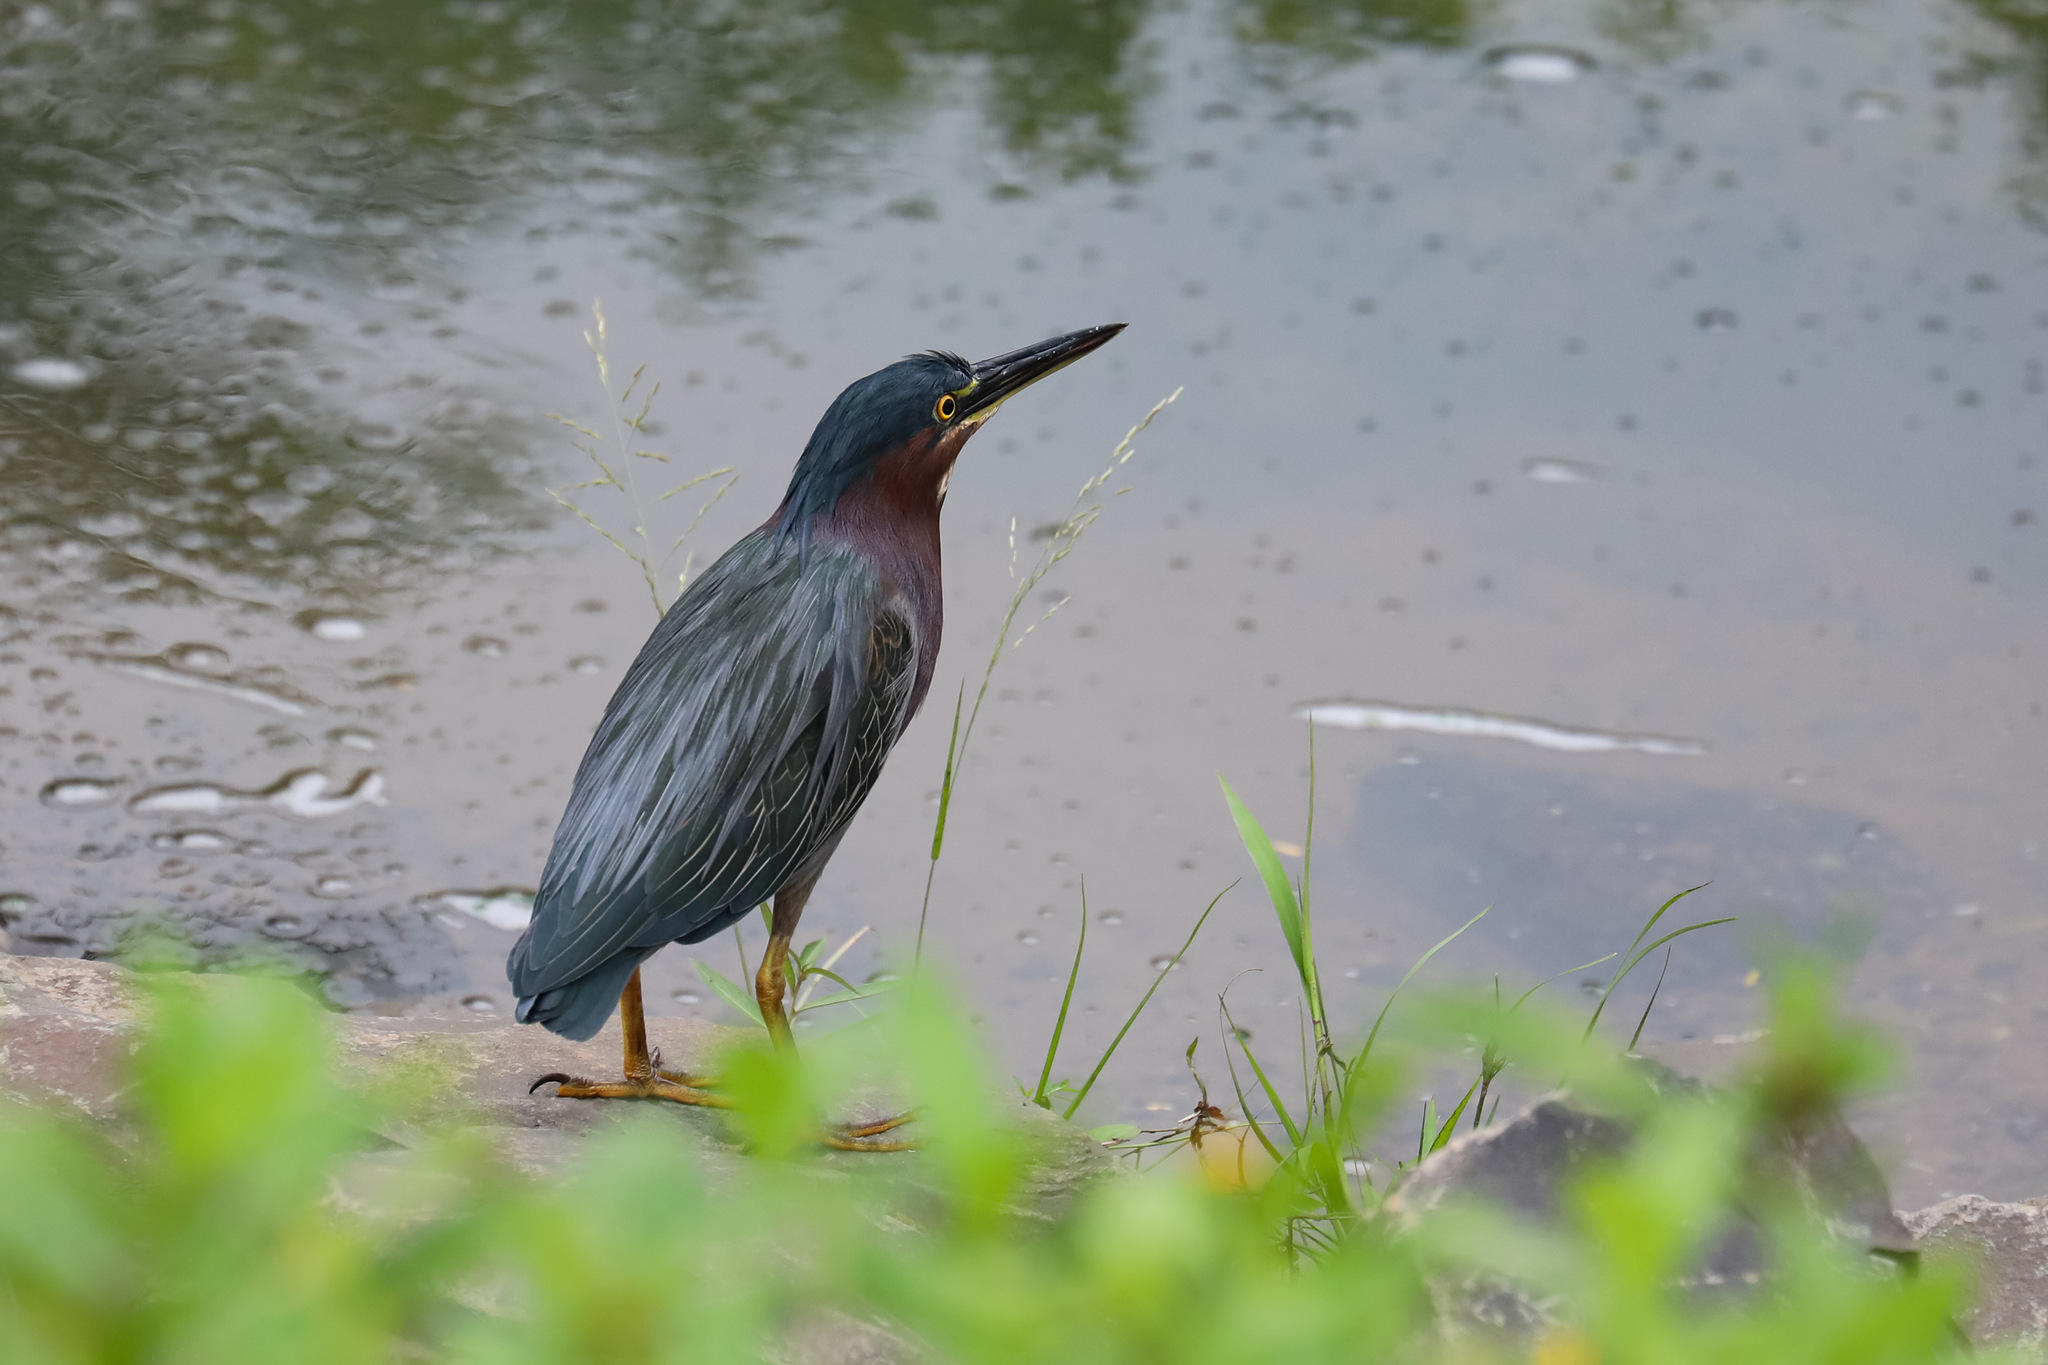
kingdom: Animalia
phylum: Chordata
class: Aves
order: Pelecaniformes
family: Ardeidae
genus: Butorides
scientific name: Butorides virescens
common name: Green heron
